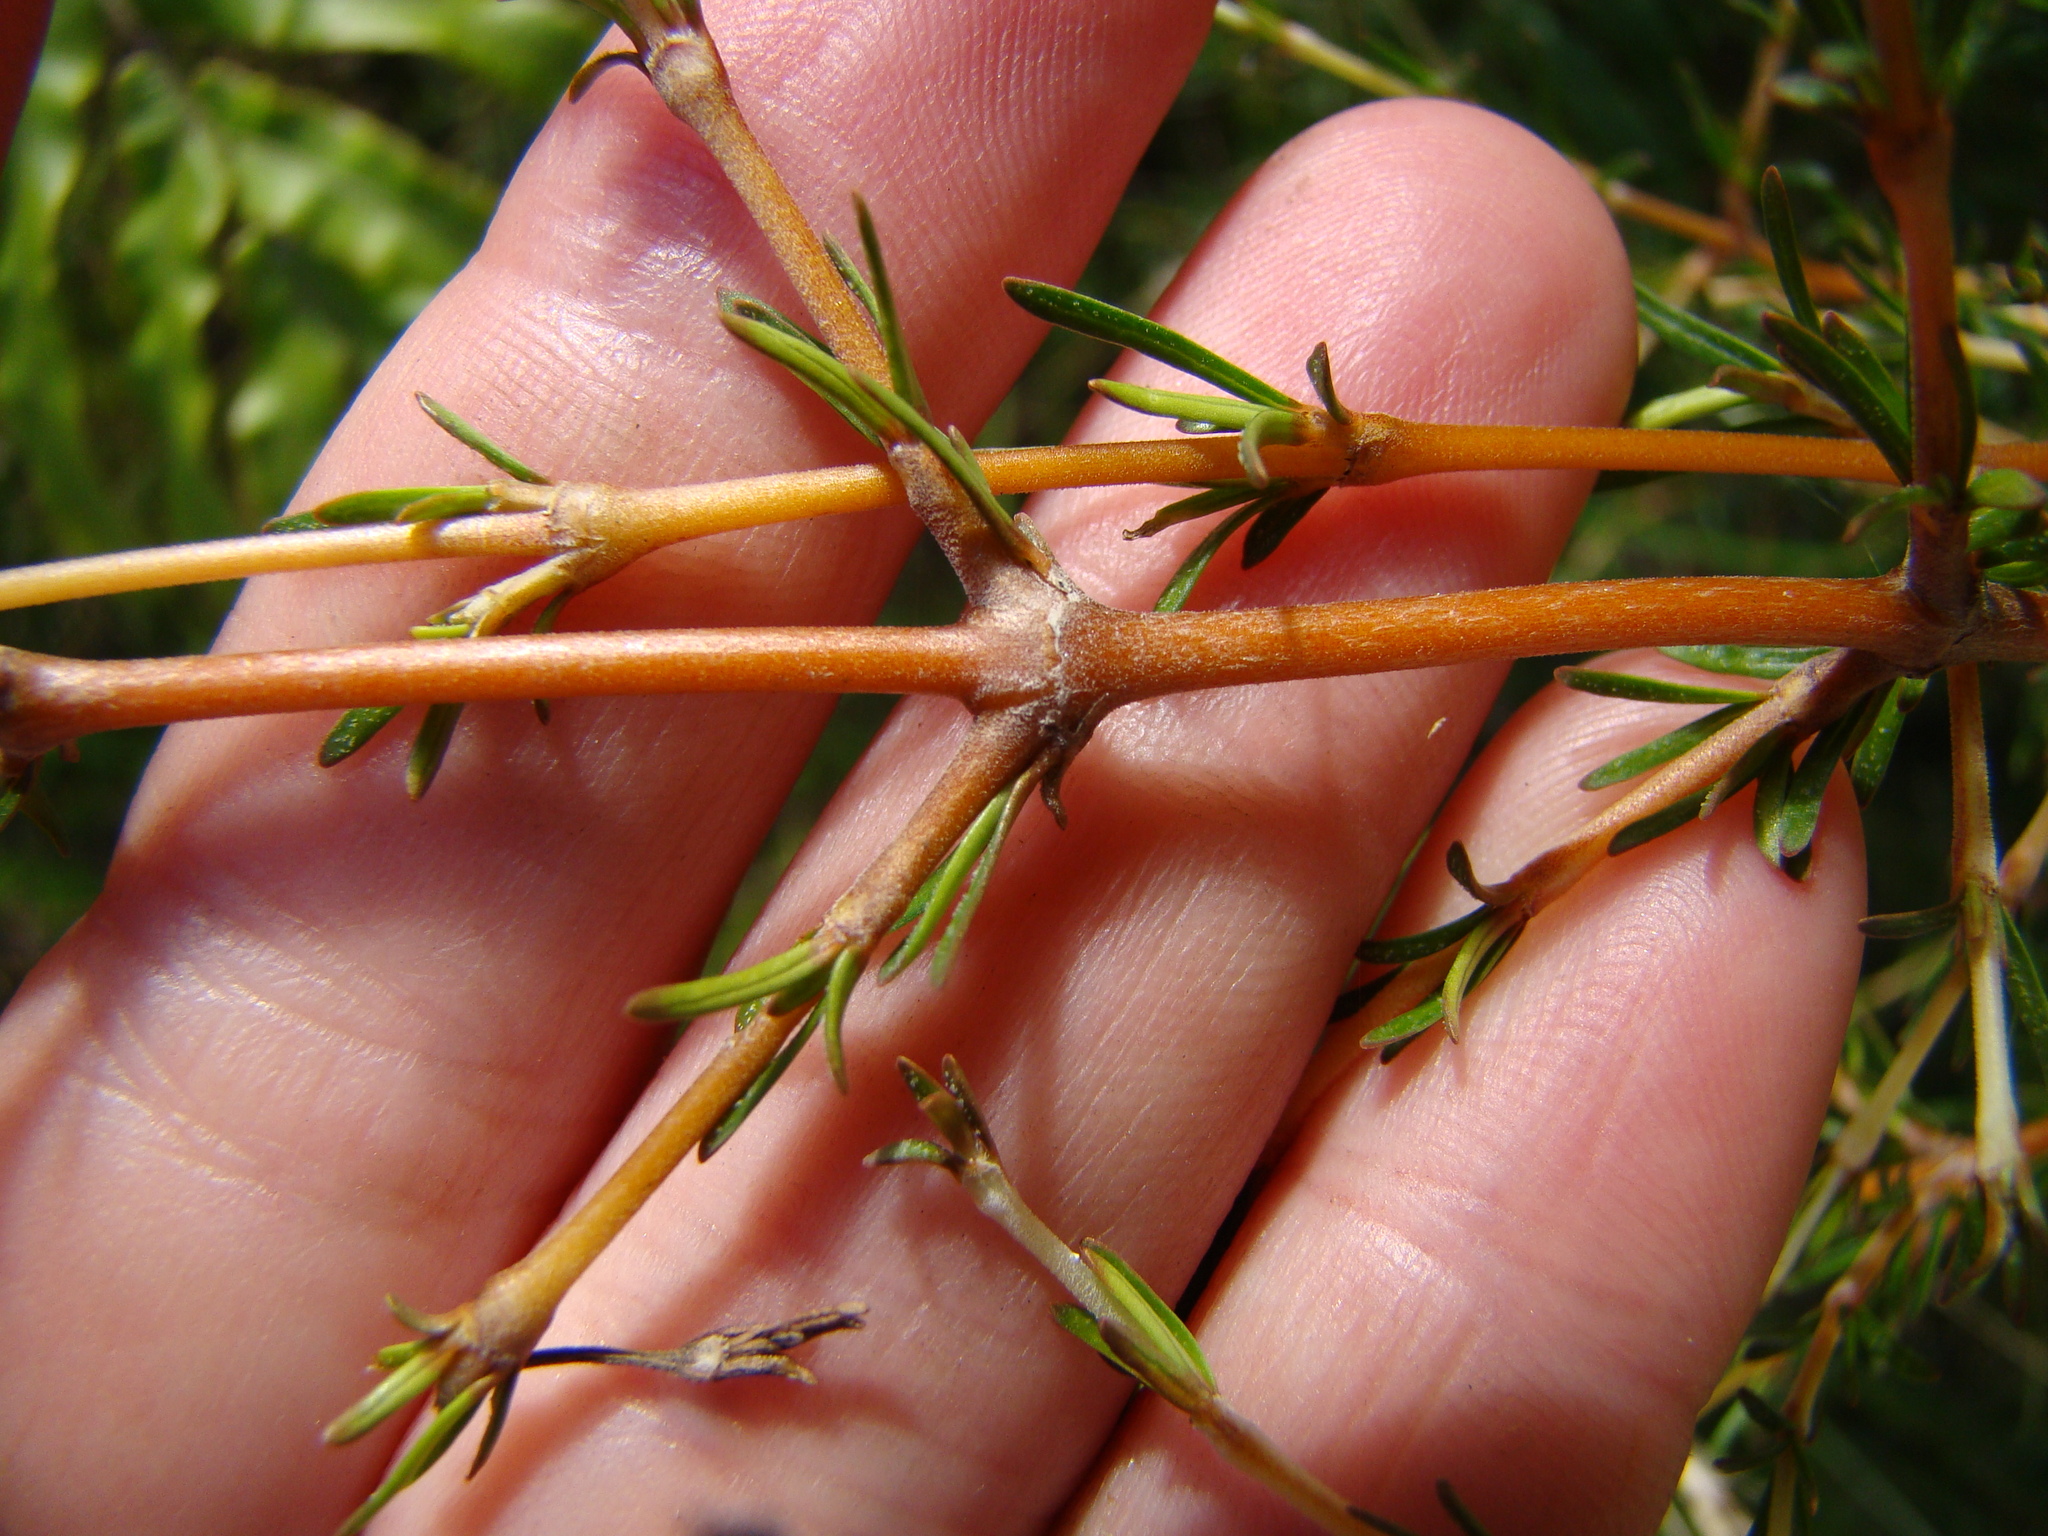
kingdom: Plantae
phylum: Tracheophyta
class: Magnoliopsida
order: Gentianales
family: Rubiaceae
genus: Coprosma
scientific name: Coprosma rugosa
